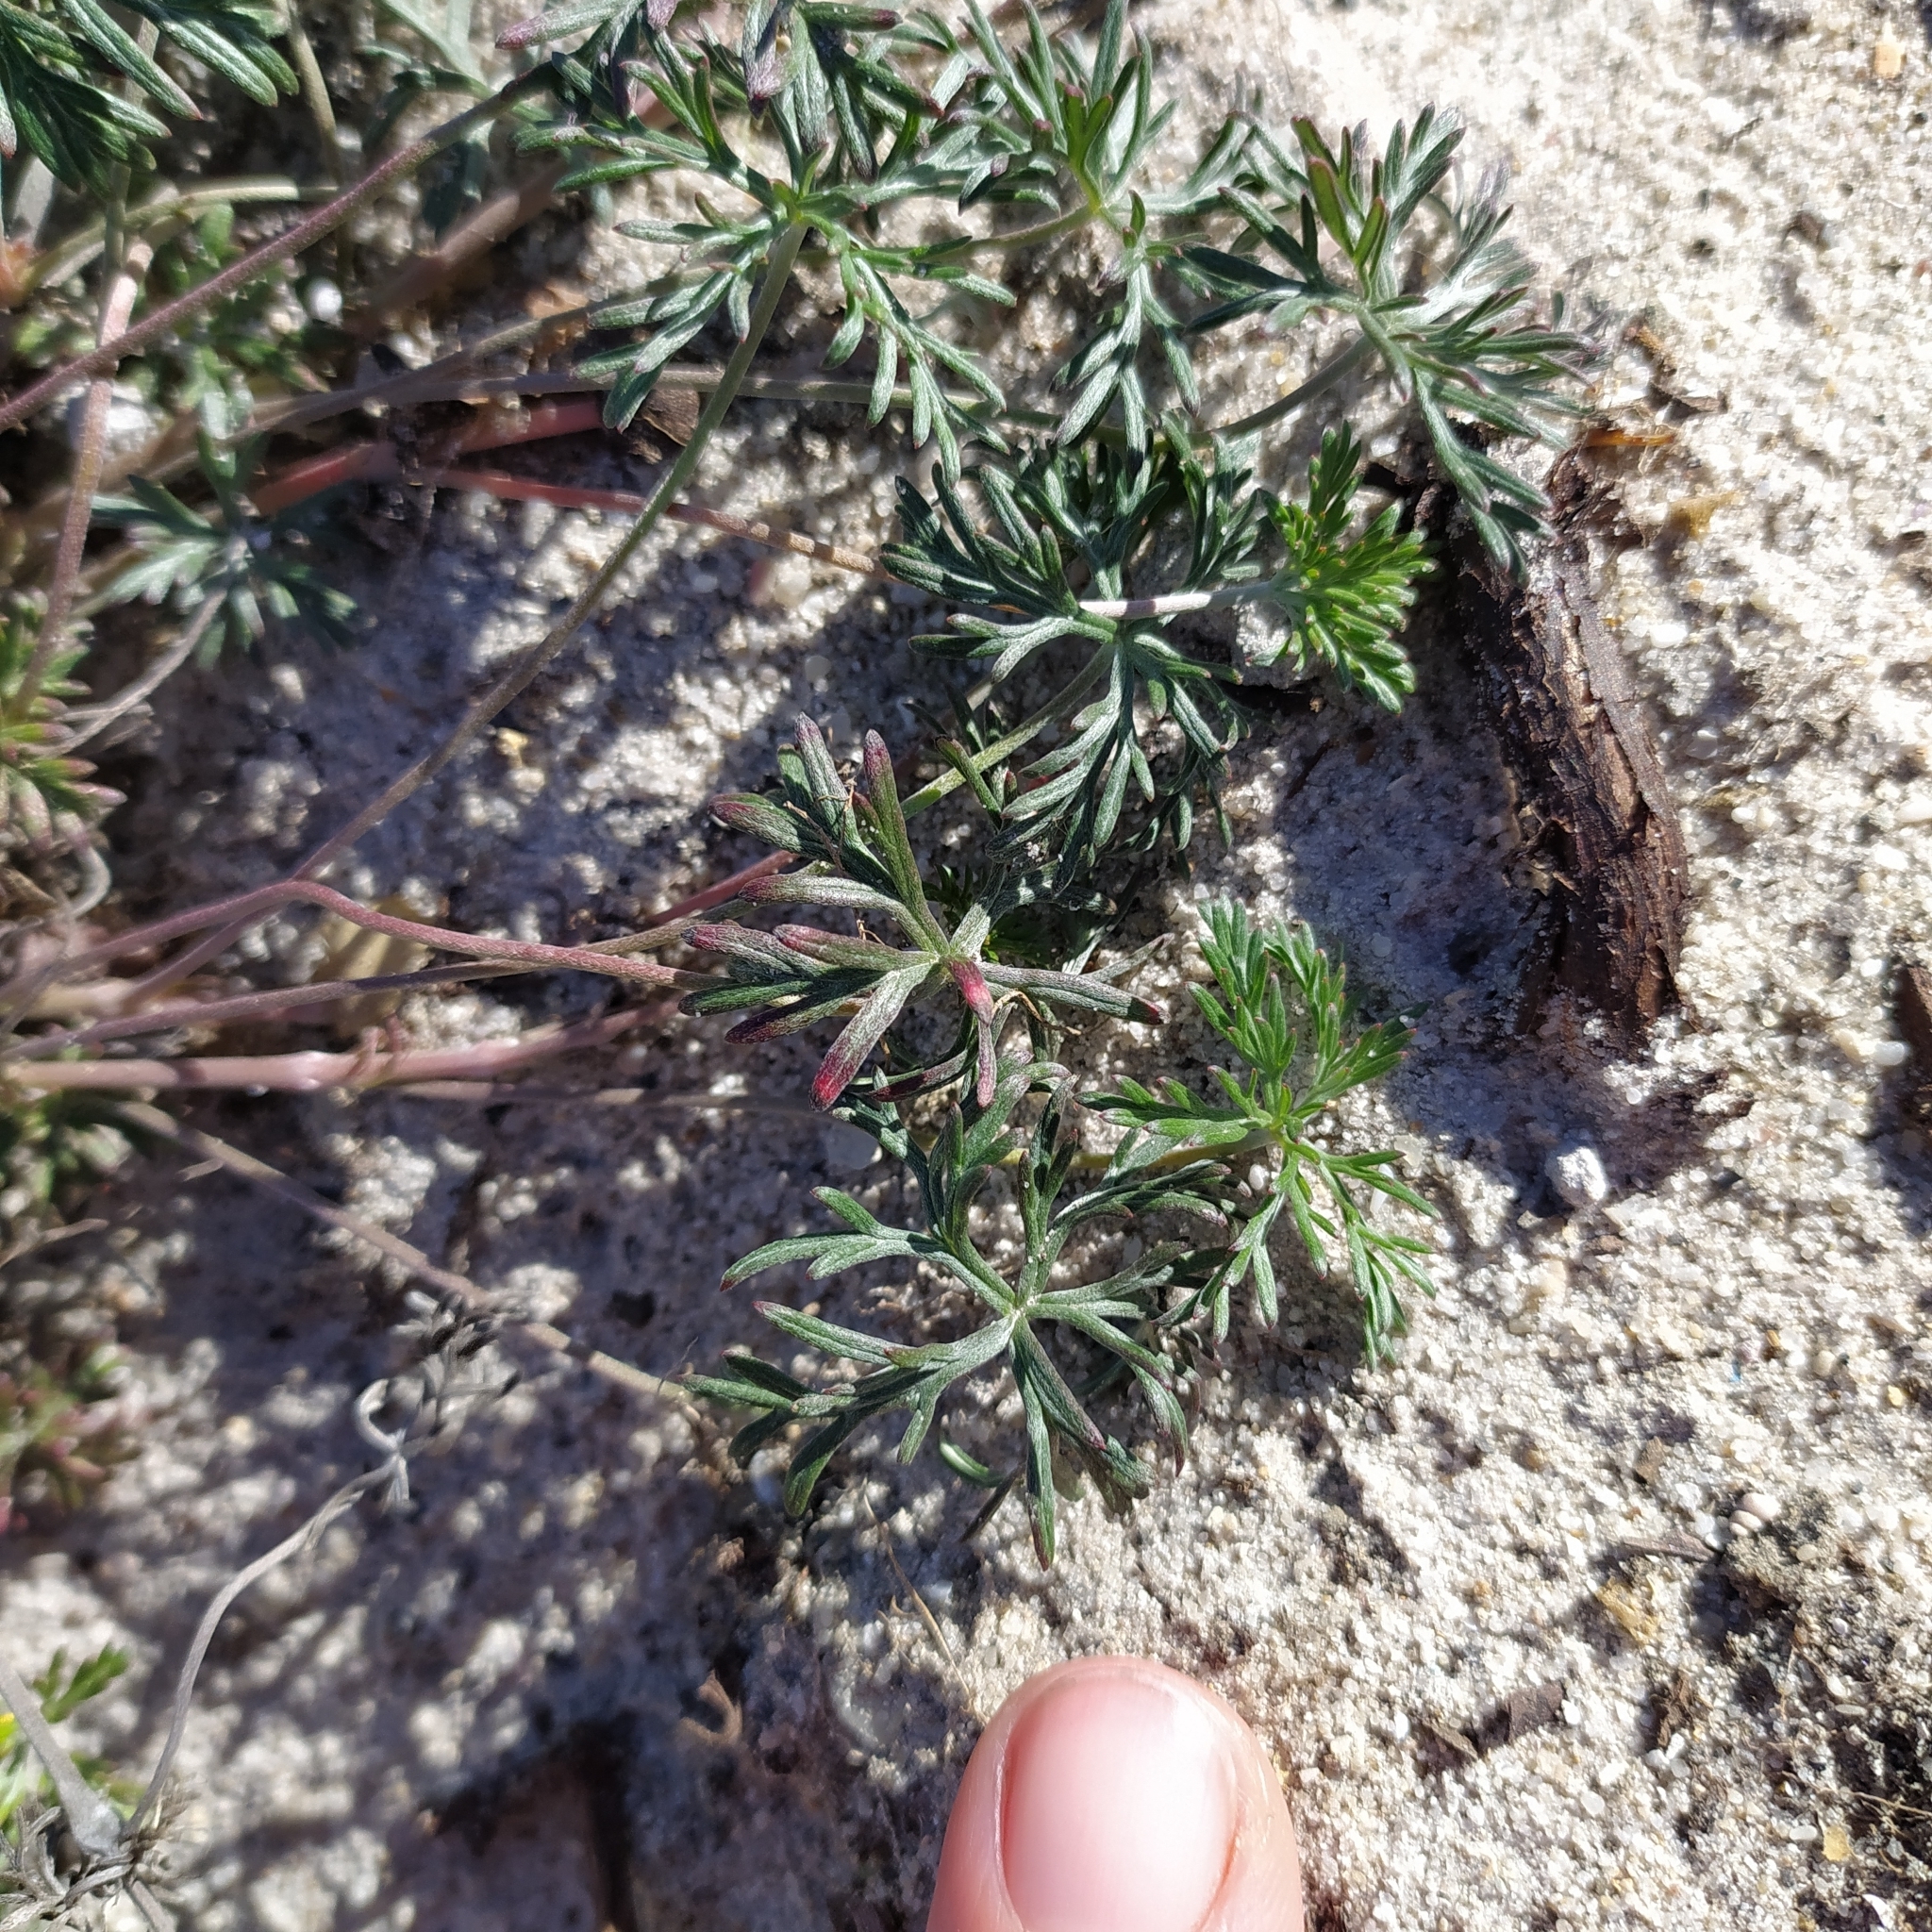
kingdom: Plantae
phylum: Tracheophyta
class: Magnoliopsida
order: Geraniales
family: Geraniaceae
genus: Geranium
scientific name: Geranium incanum
